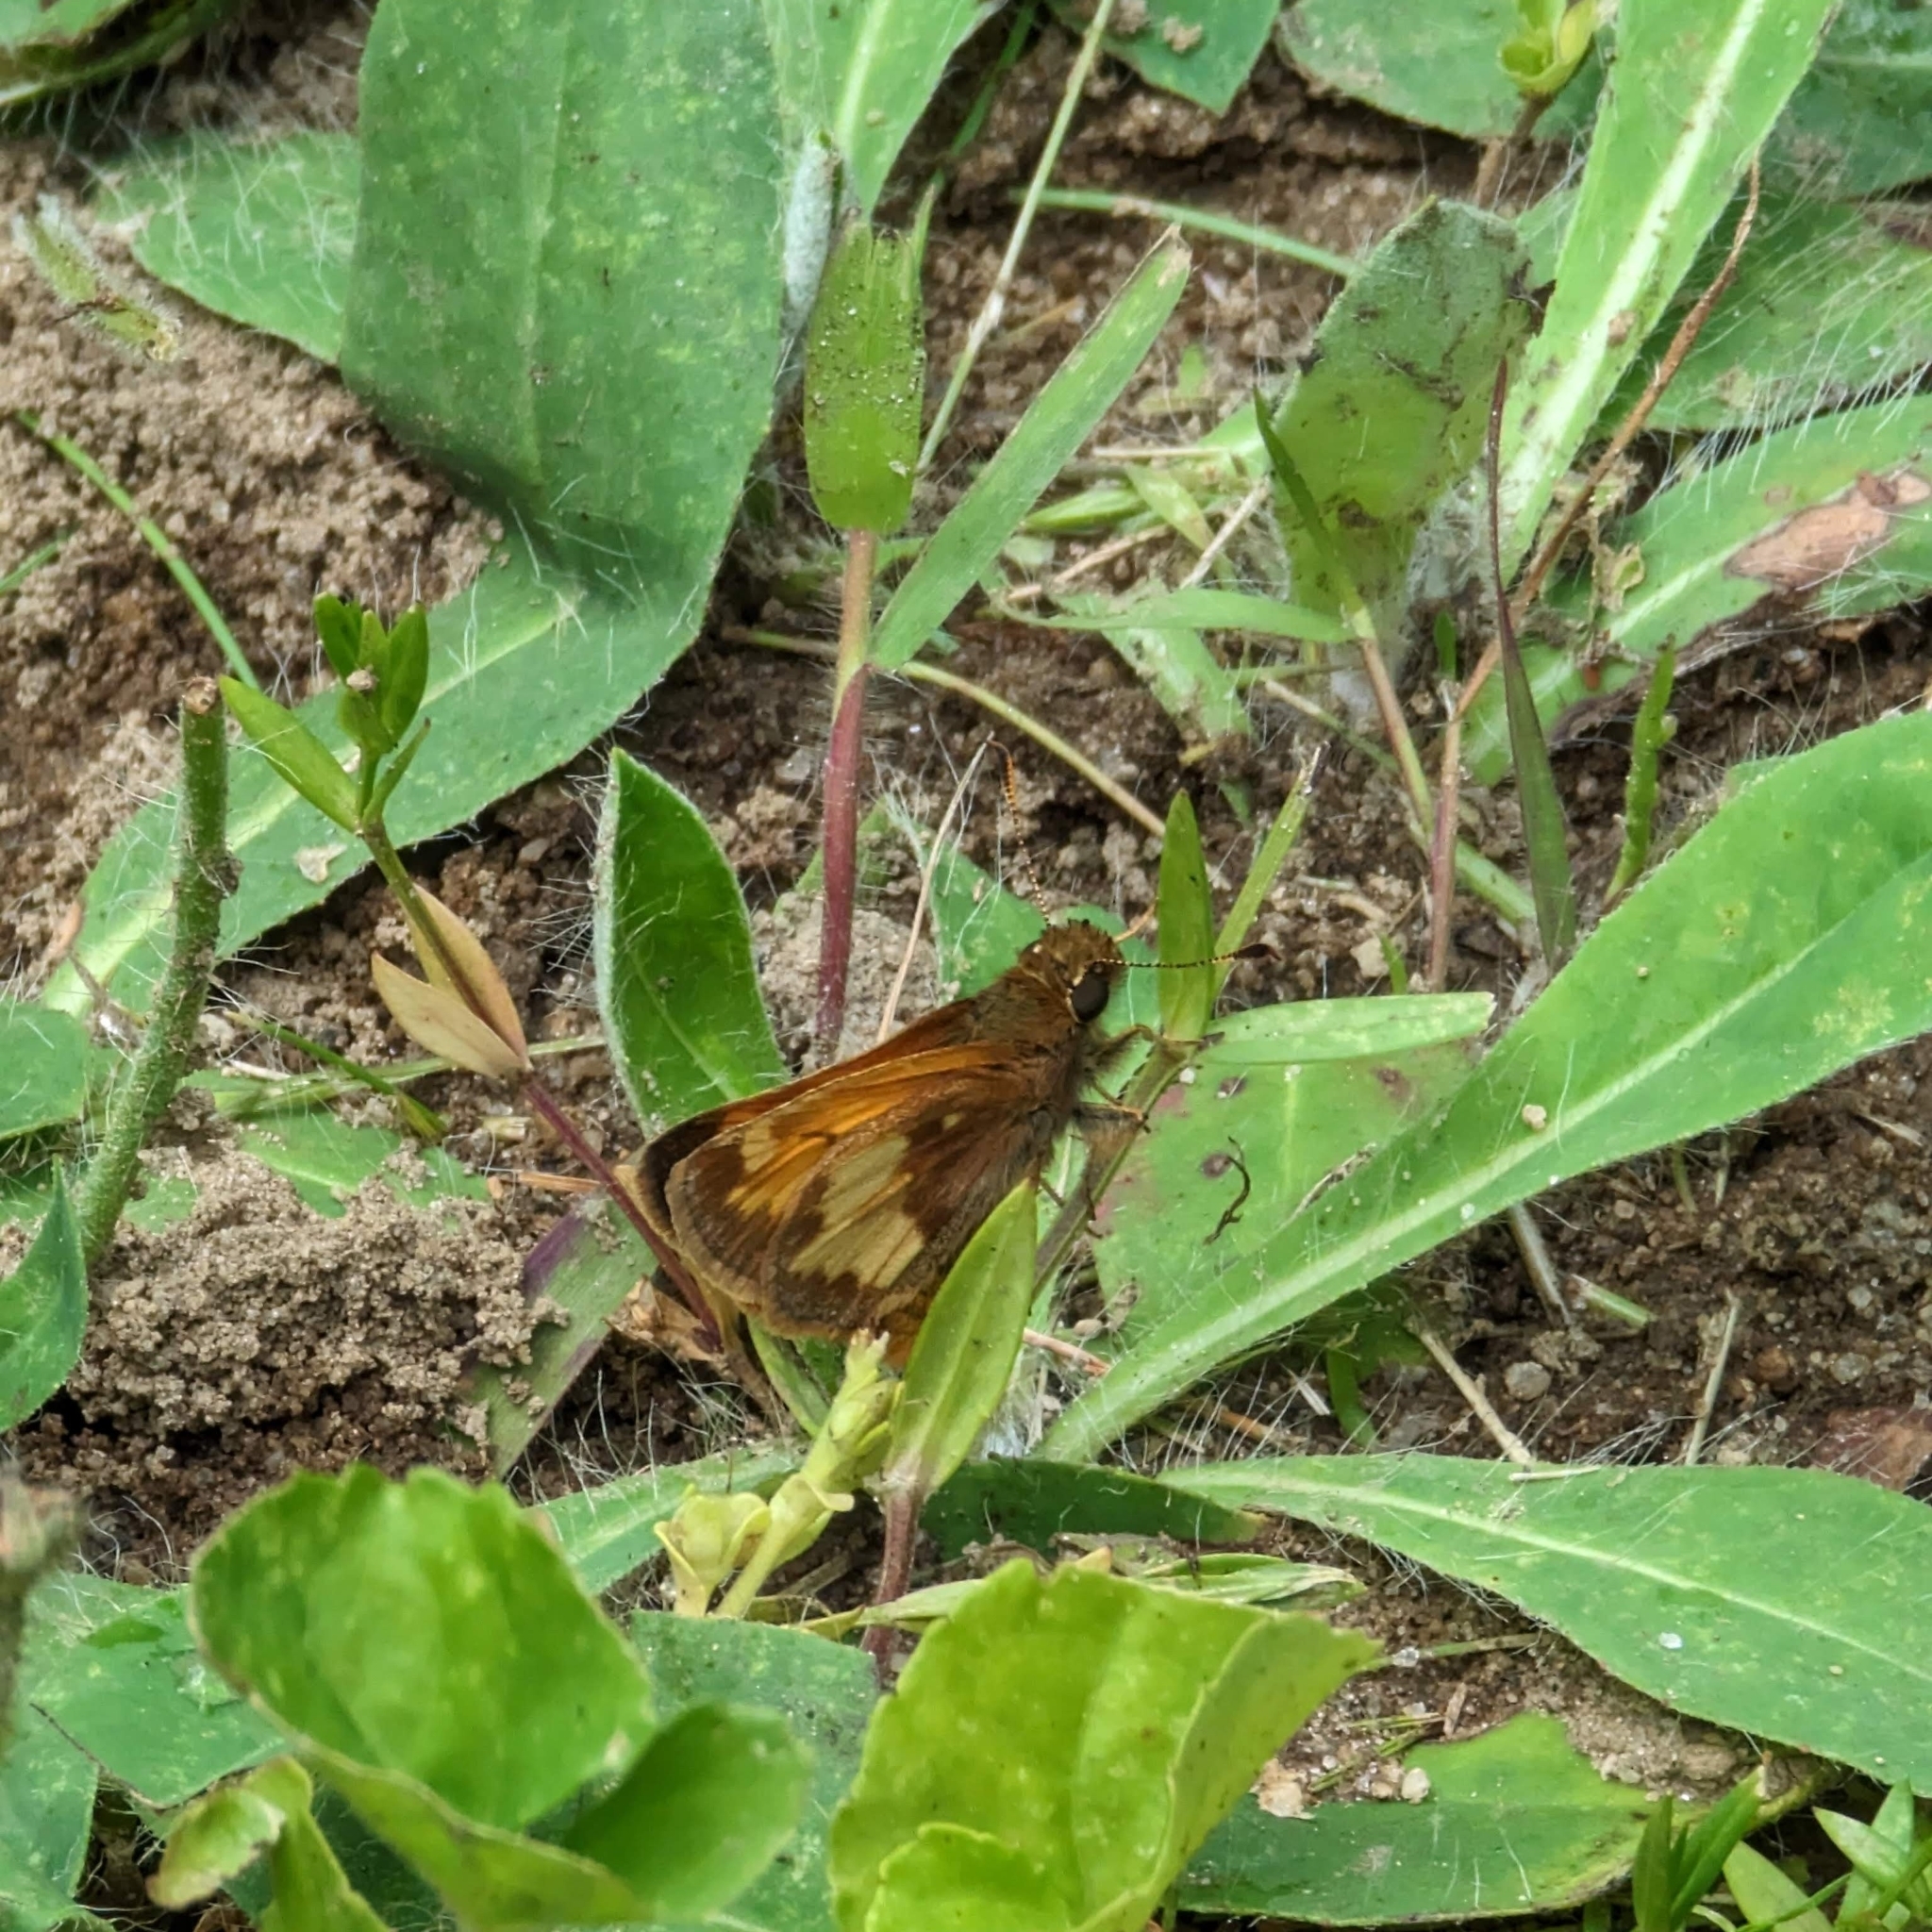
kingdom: Animalia
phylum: Arthropoda
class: Insecta
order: Lepidoptera
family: Hesperiidae
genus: Lon
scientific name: Lon hobomok
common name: Hobomok skipper
